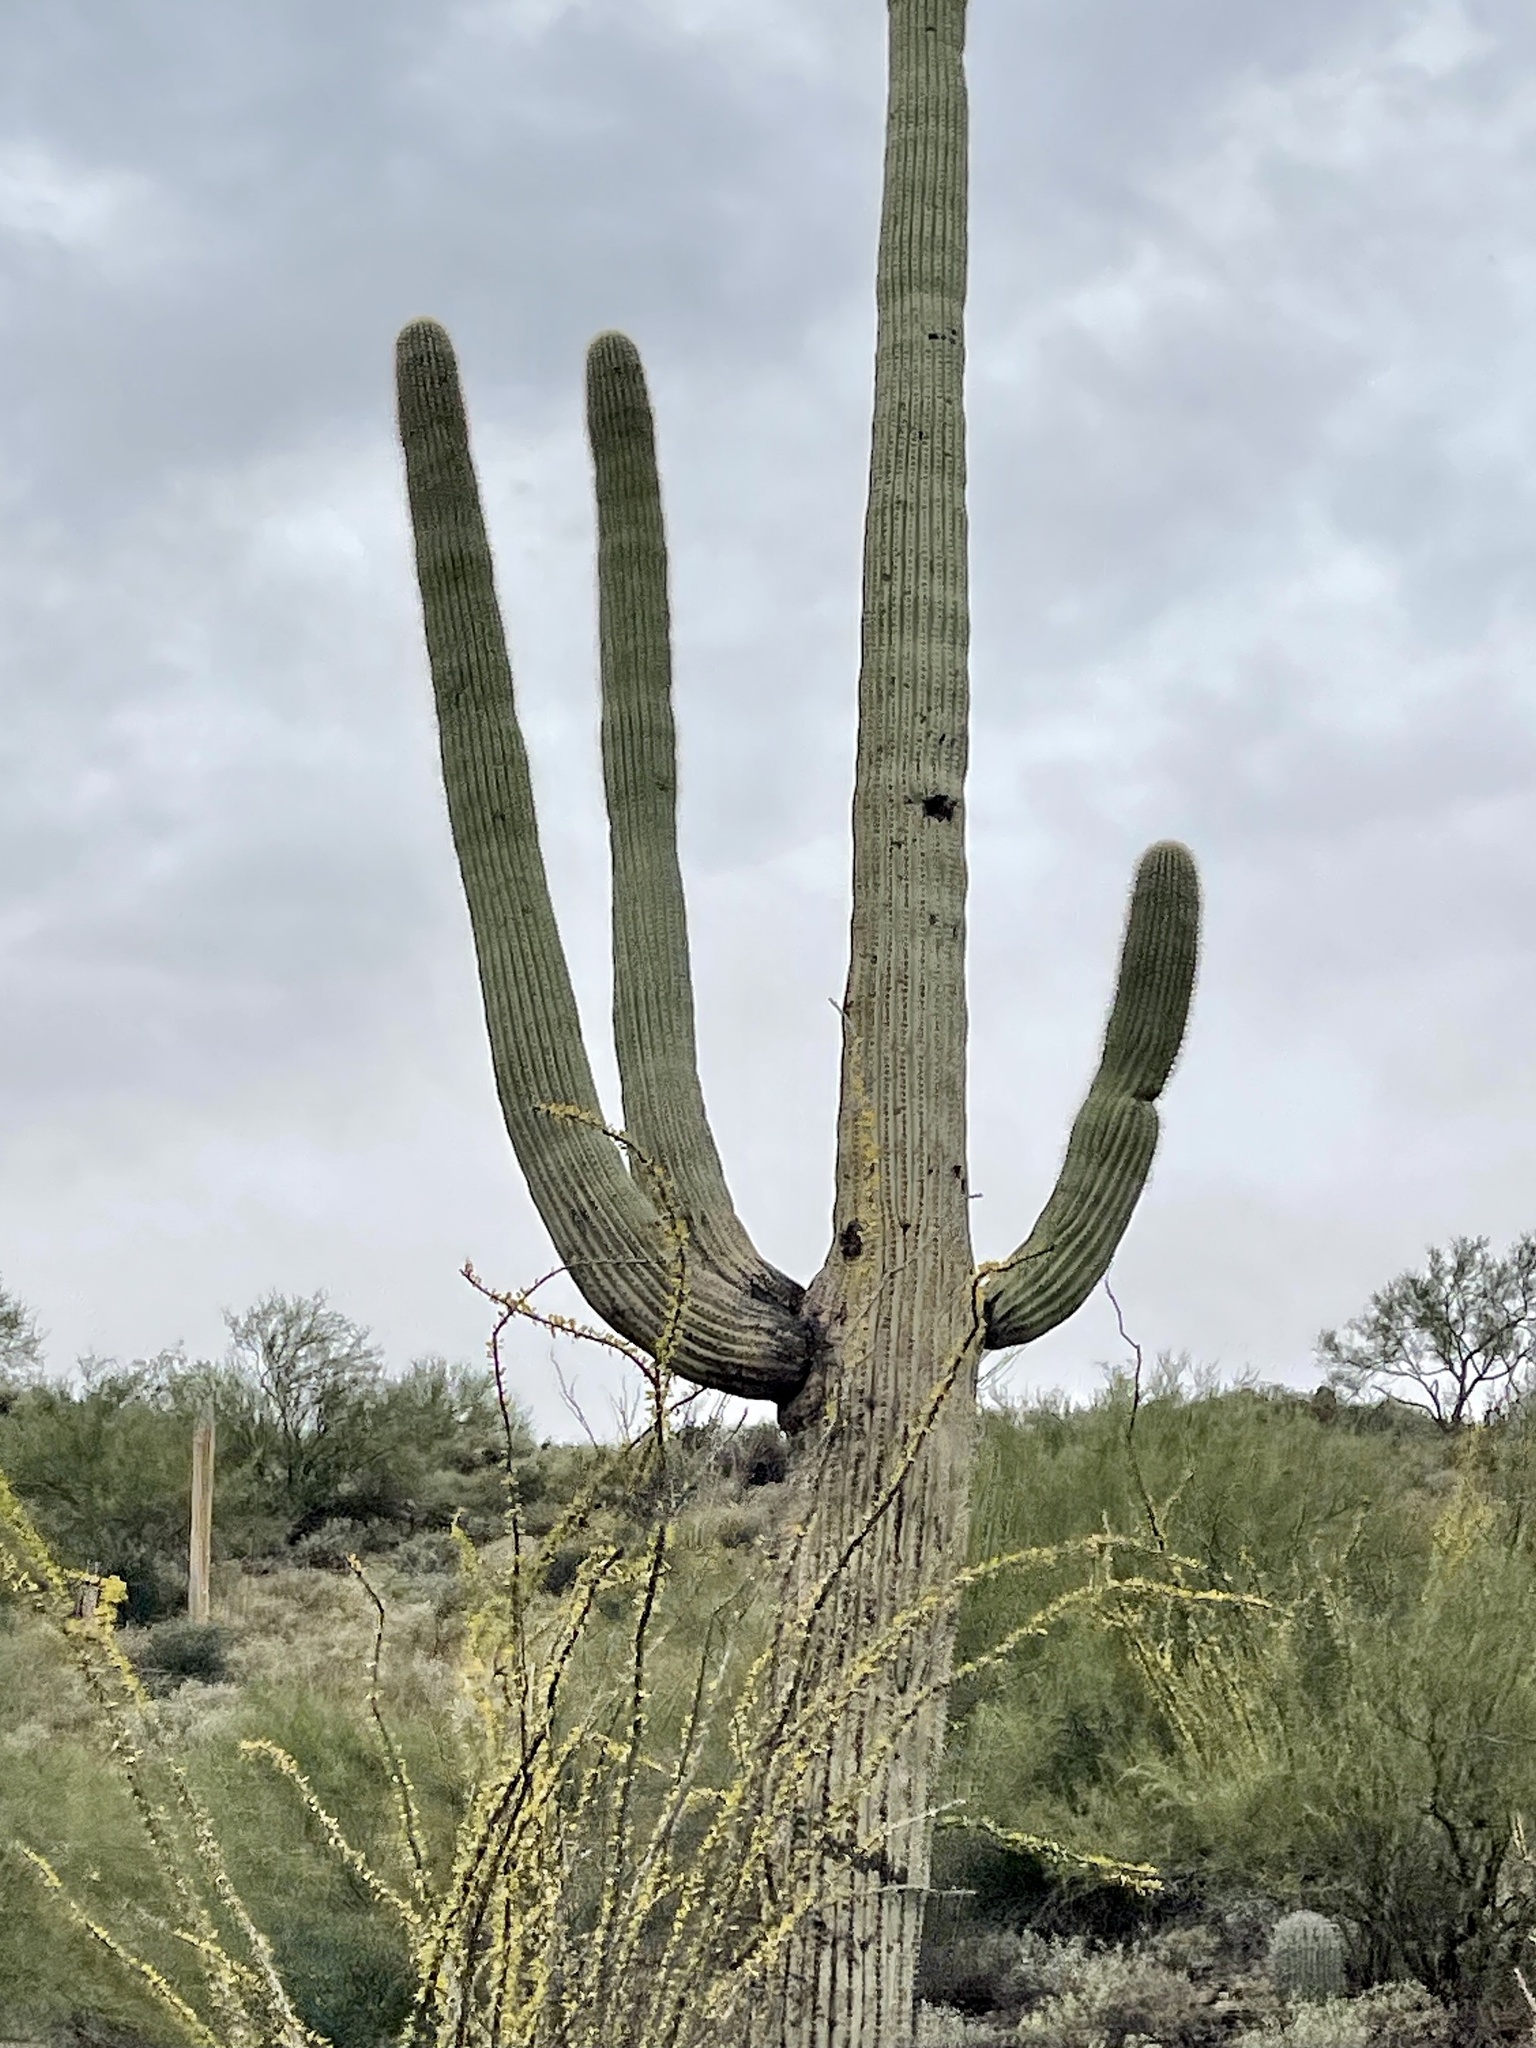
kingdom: Plantae
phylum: Tracheophyta
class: Magnoliopsida
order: Caryophyllales
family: Cactaceae
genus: Carnegiea
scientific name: Carnegiea gigantea
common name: Saguaro
